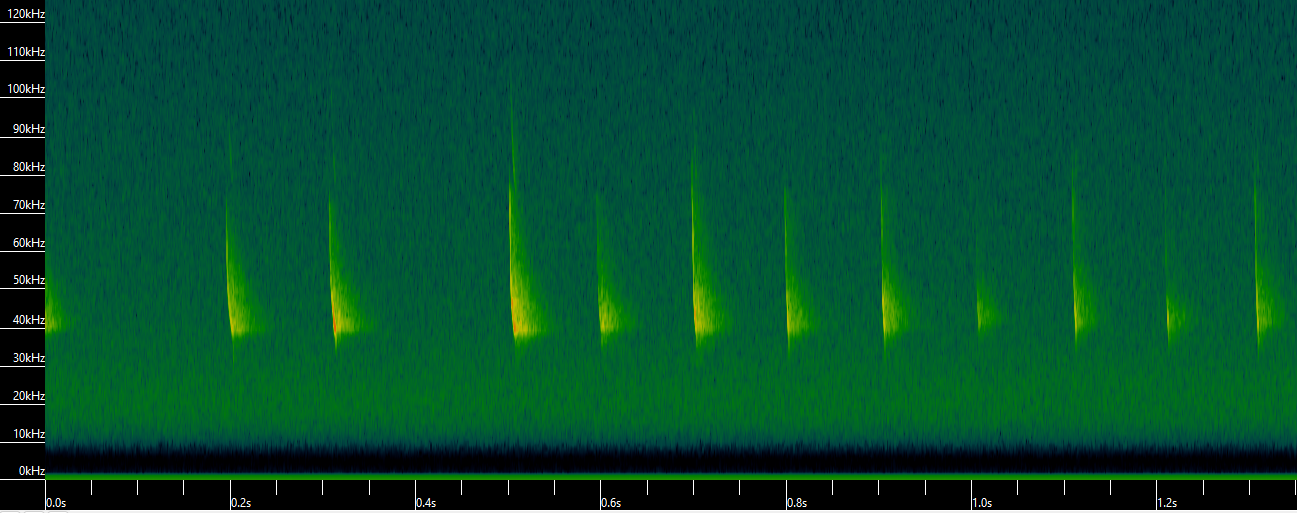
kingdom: Animalia
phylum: Chordata
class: Mammalia
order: Chiroptera
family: Vespertilionidae
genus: Myotis
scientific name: Myotis lucifugus
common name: Little brown bat
